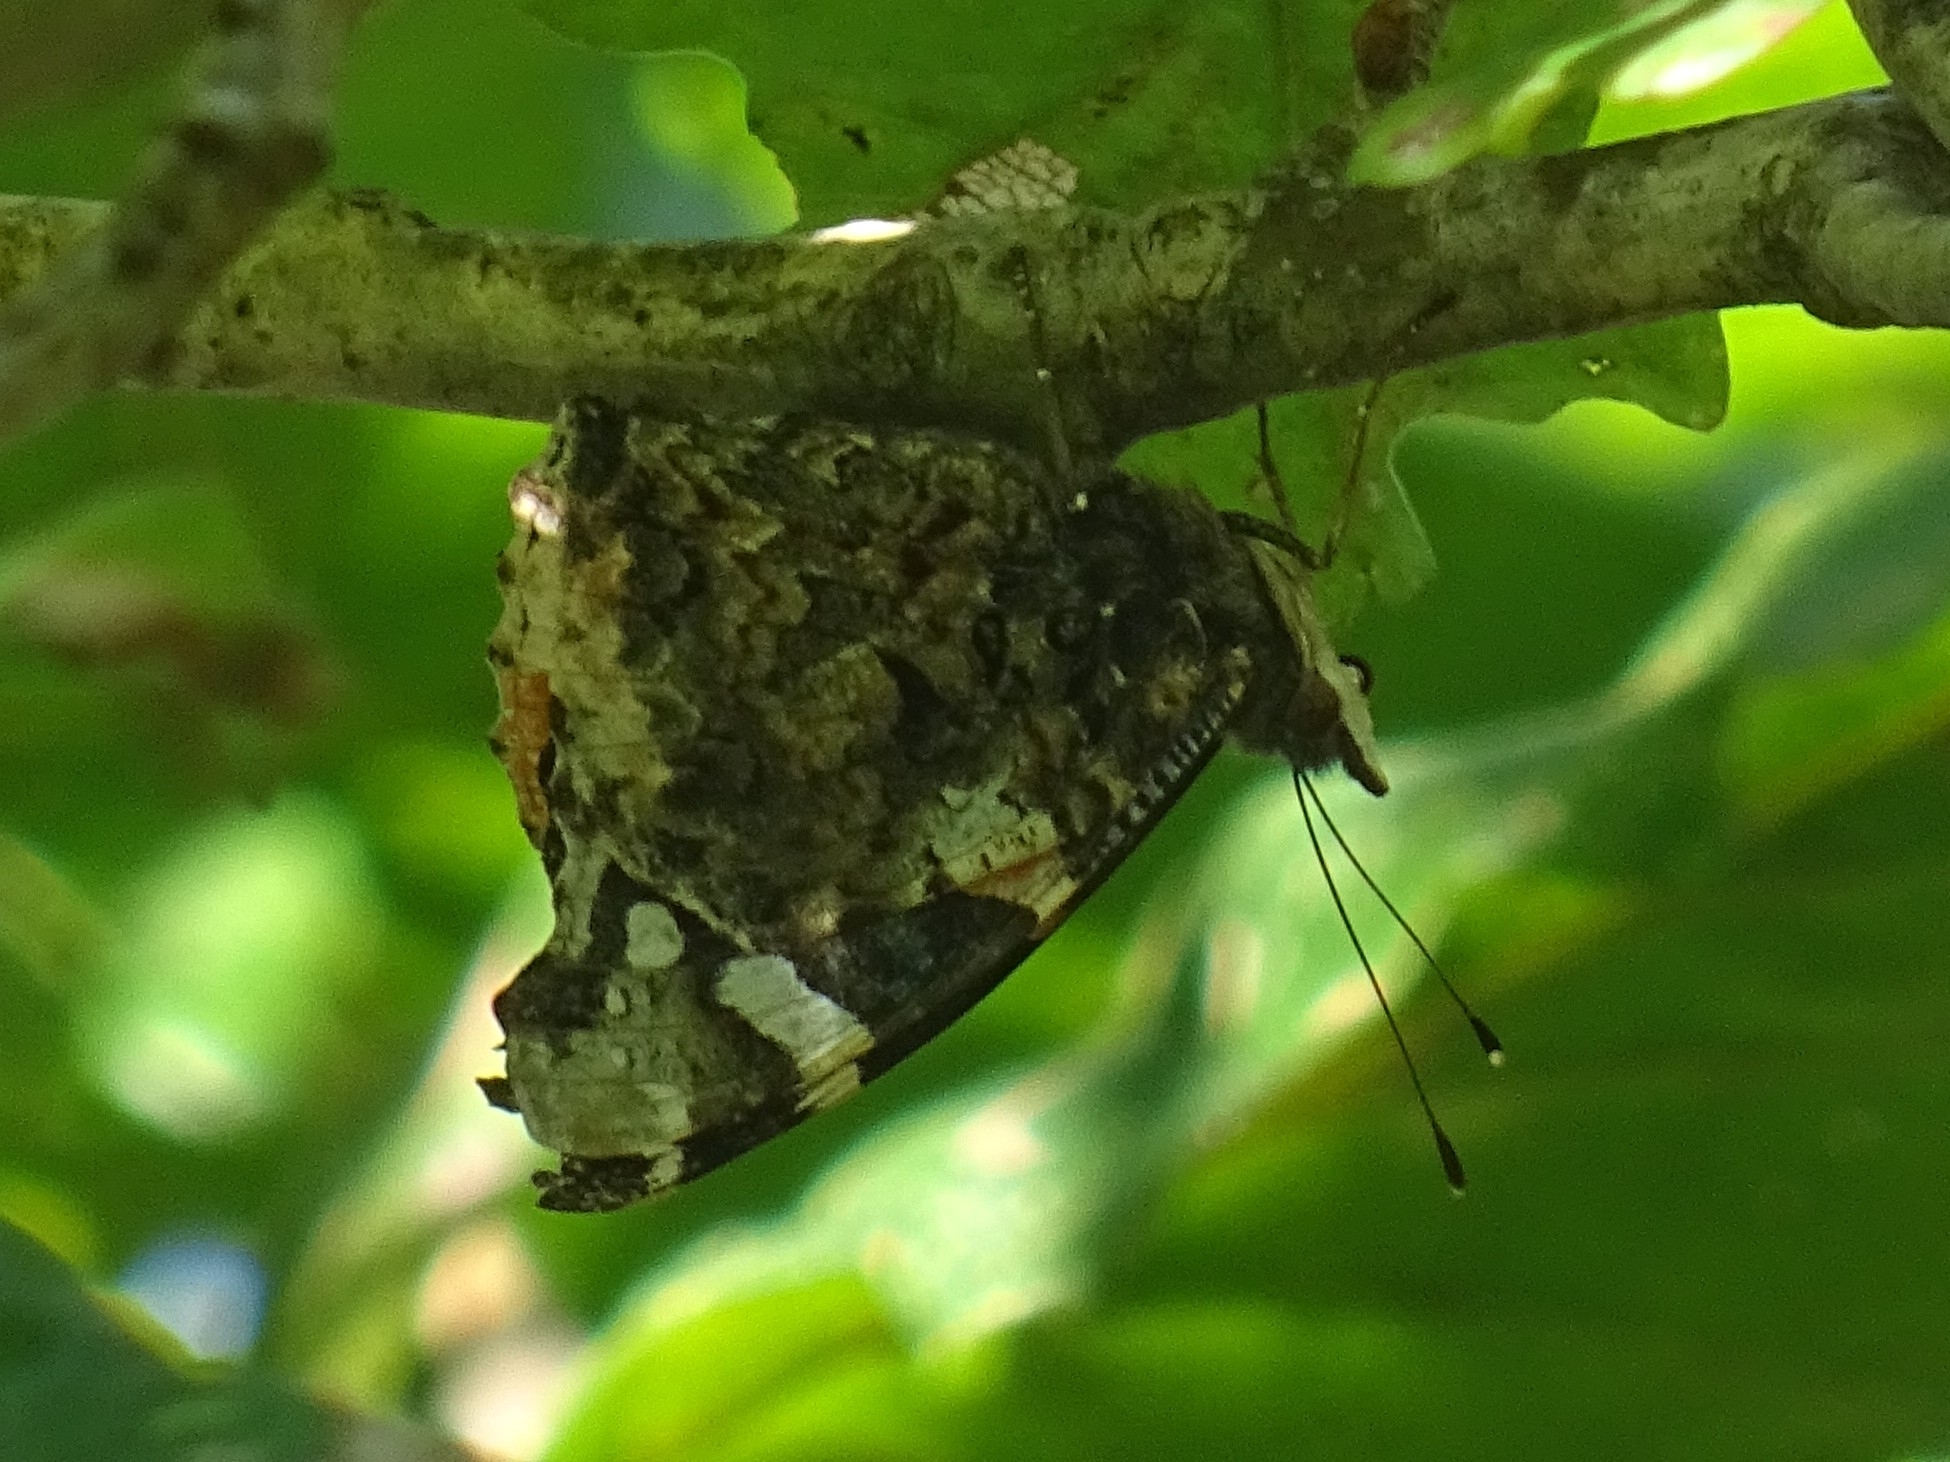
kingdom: Animalia
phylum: Arthropoda
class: Insecta
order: Lepidoptera
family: Nymphalidae
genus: Vanessa
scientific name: Vanessa atalanta
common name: Red admiral
